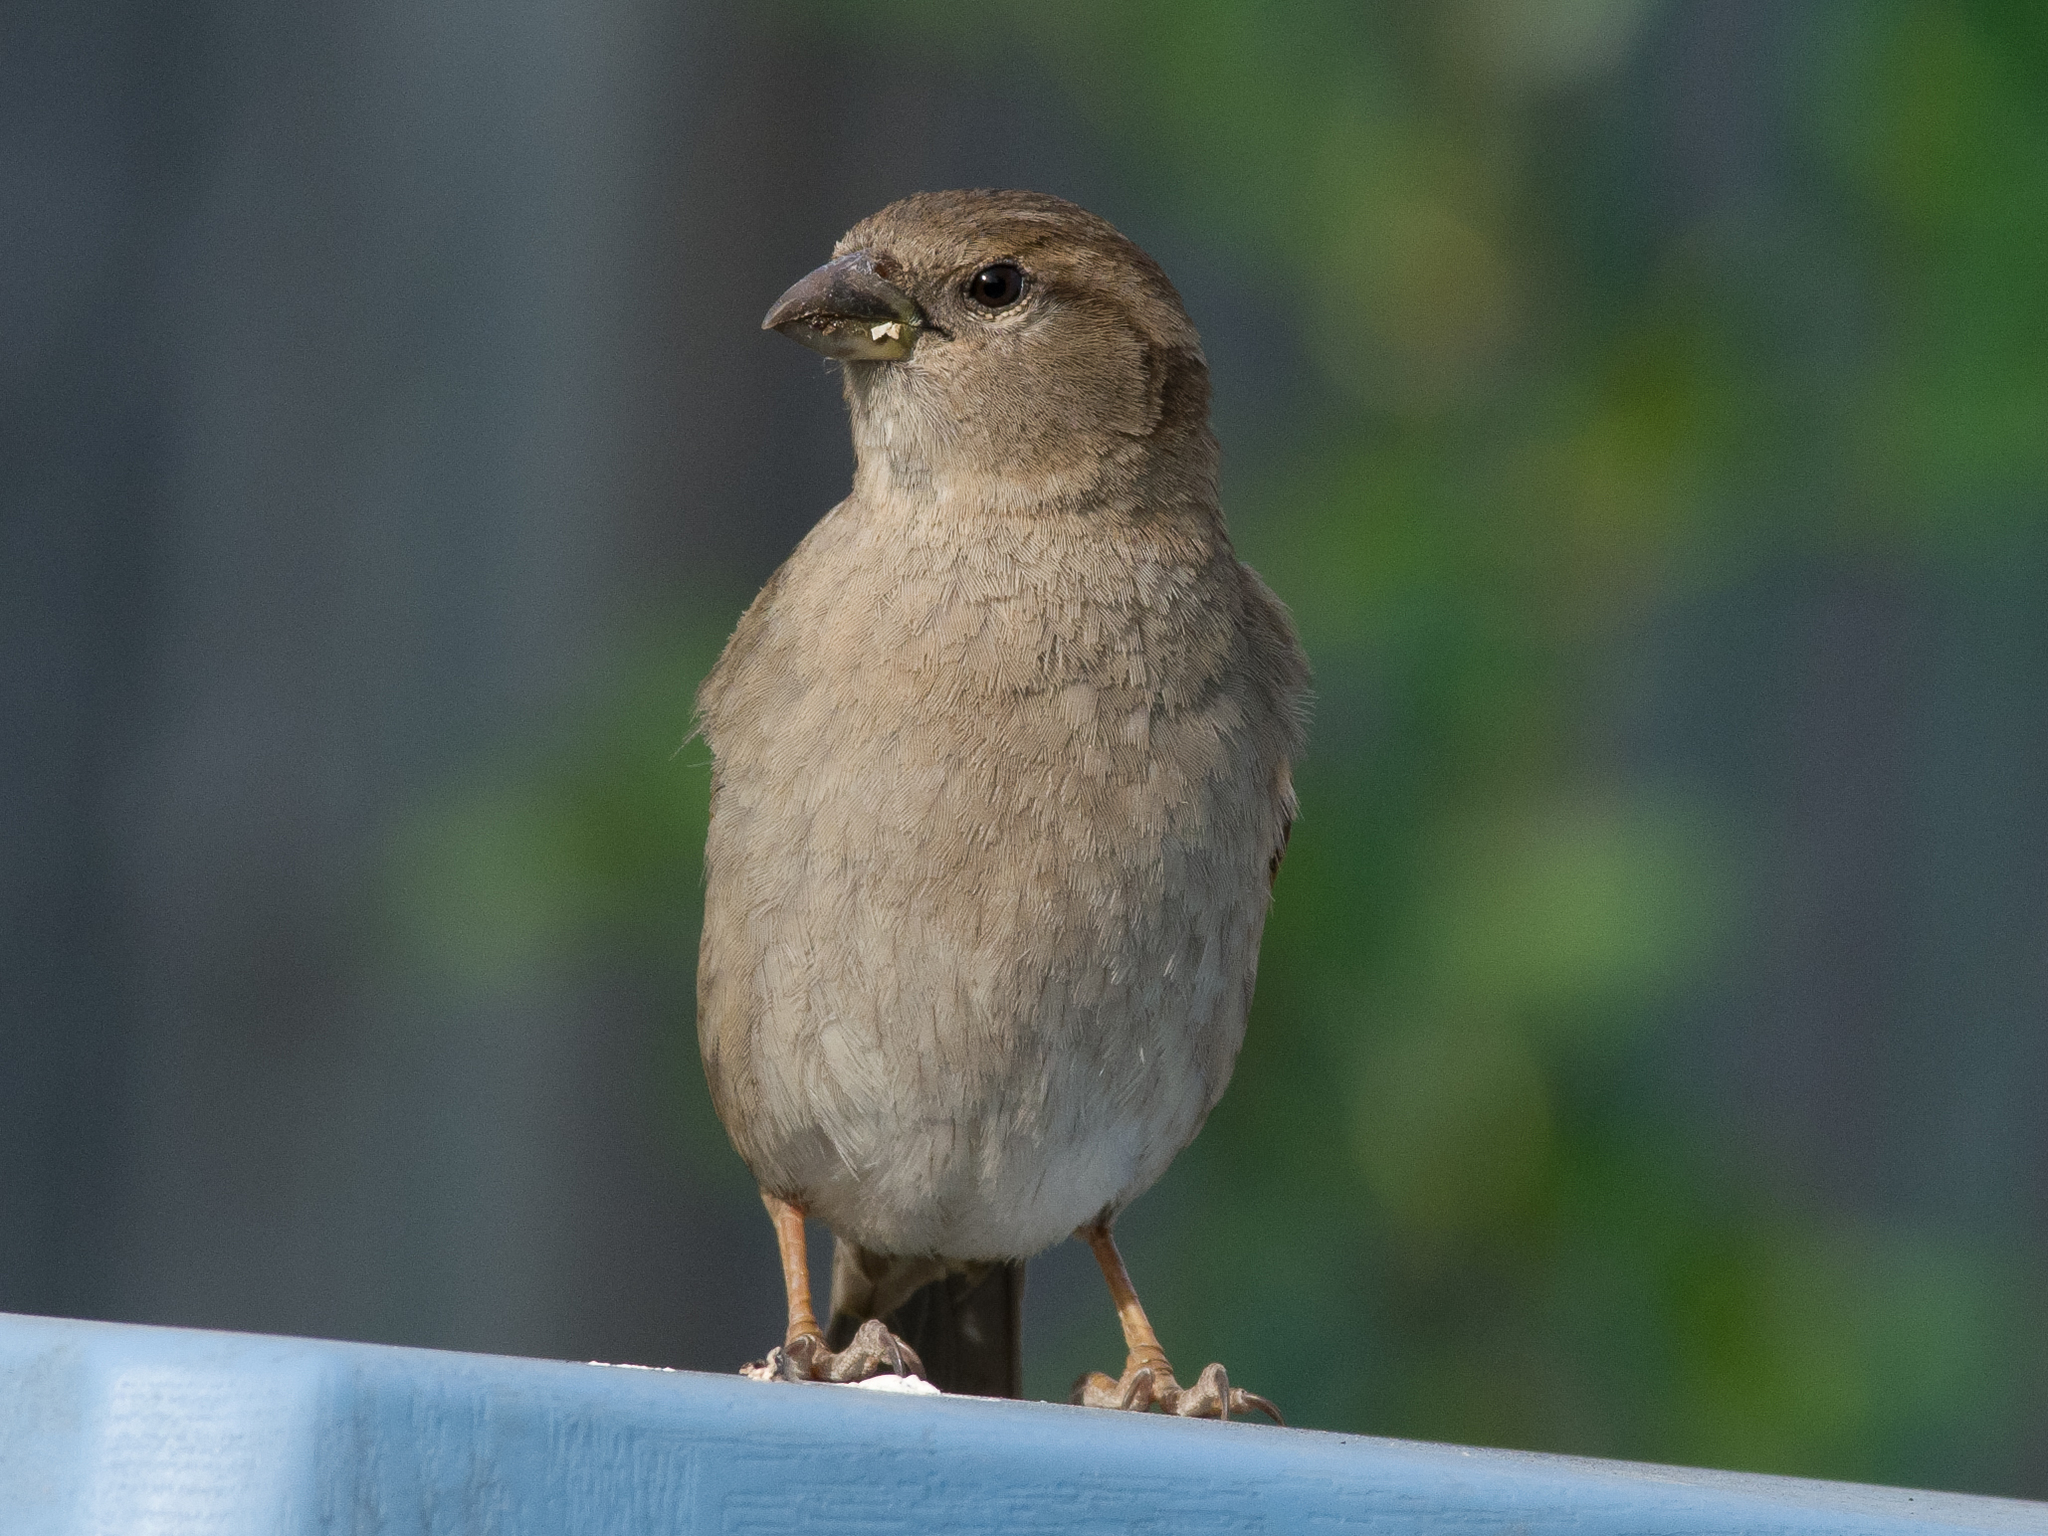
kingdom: Animalia
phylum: Chordata
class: Aves
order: Passeriformes
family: Passeridae
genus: Passer
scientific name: Passer domesticus
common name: House sparrow
